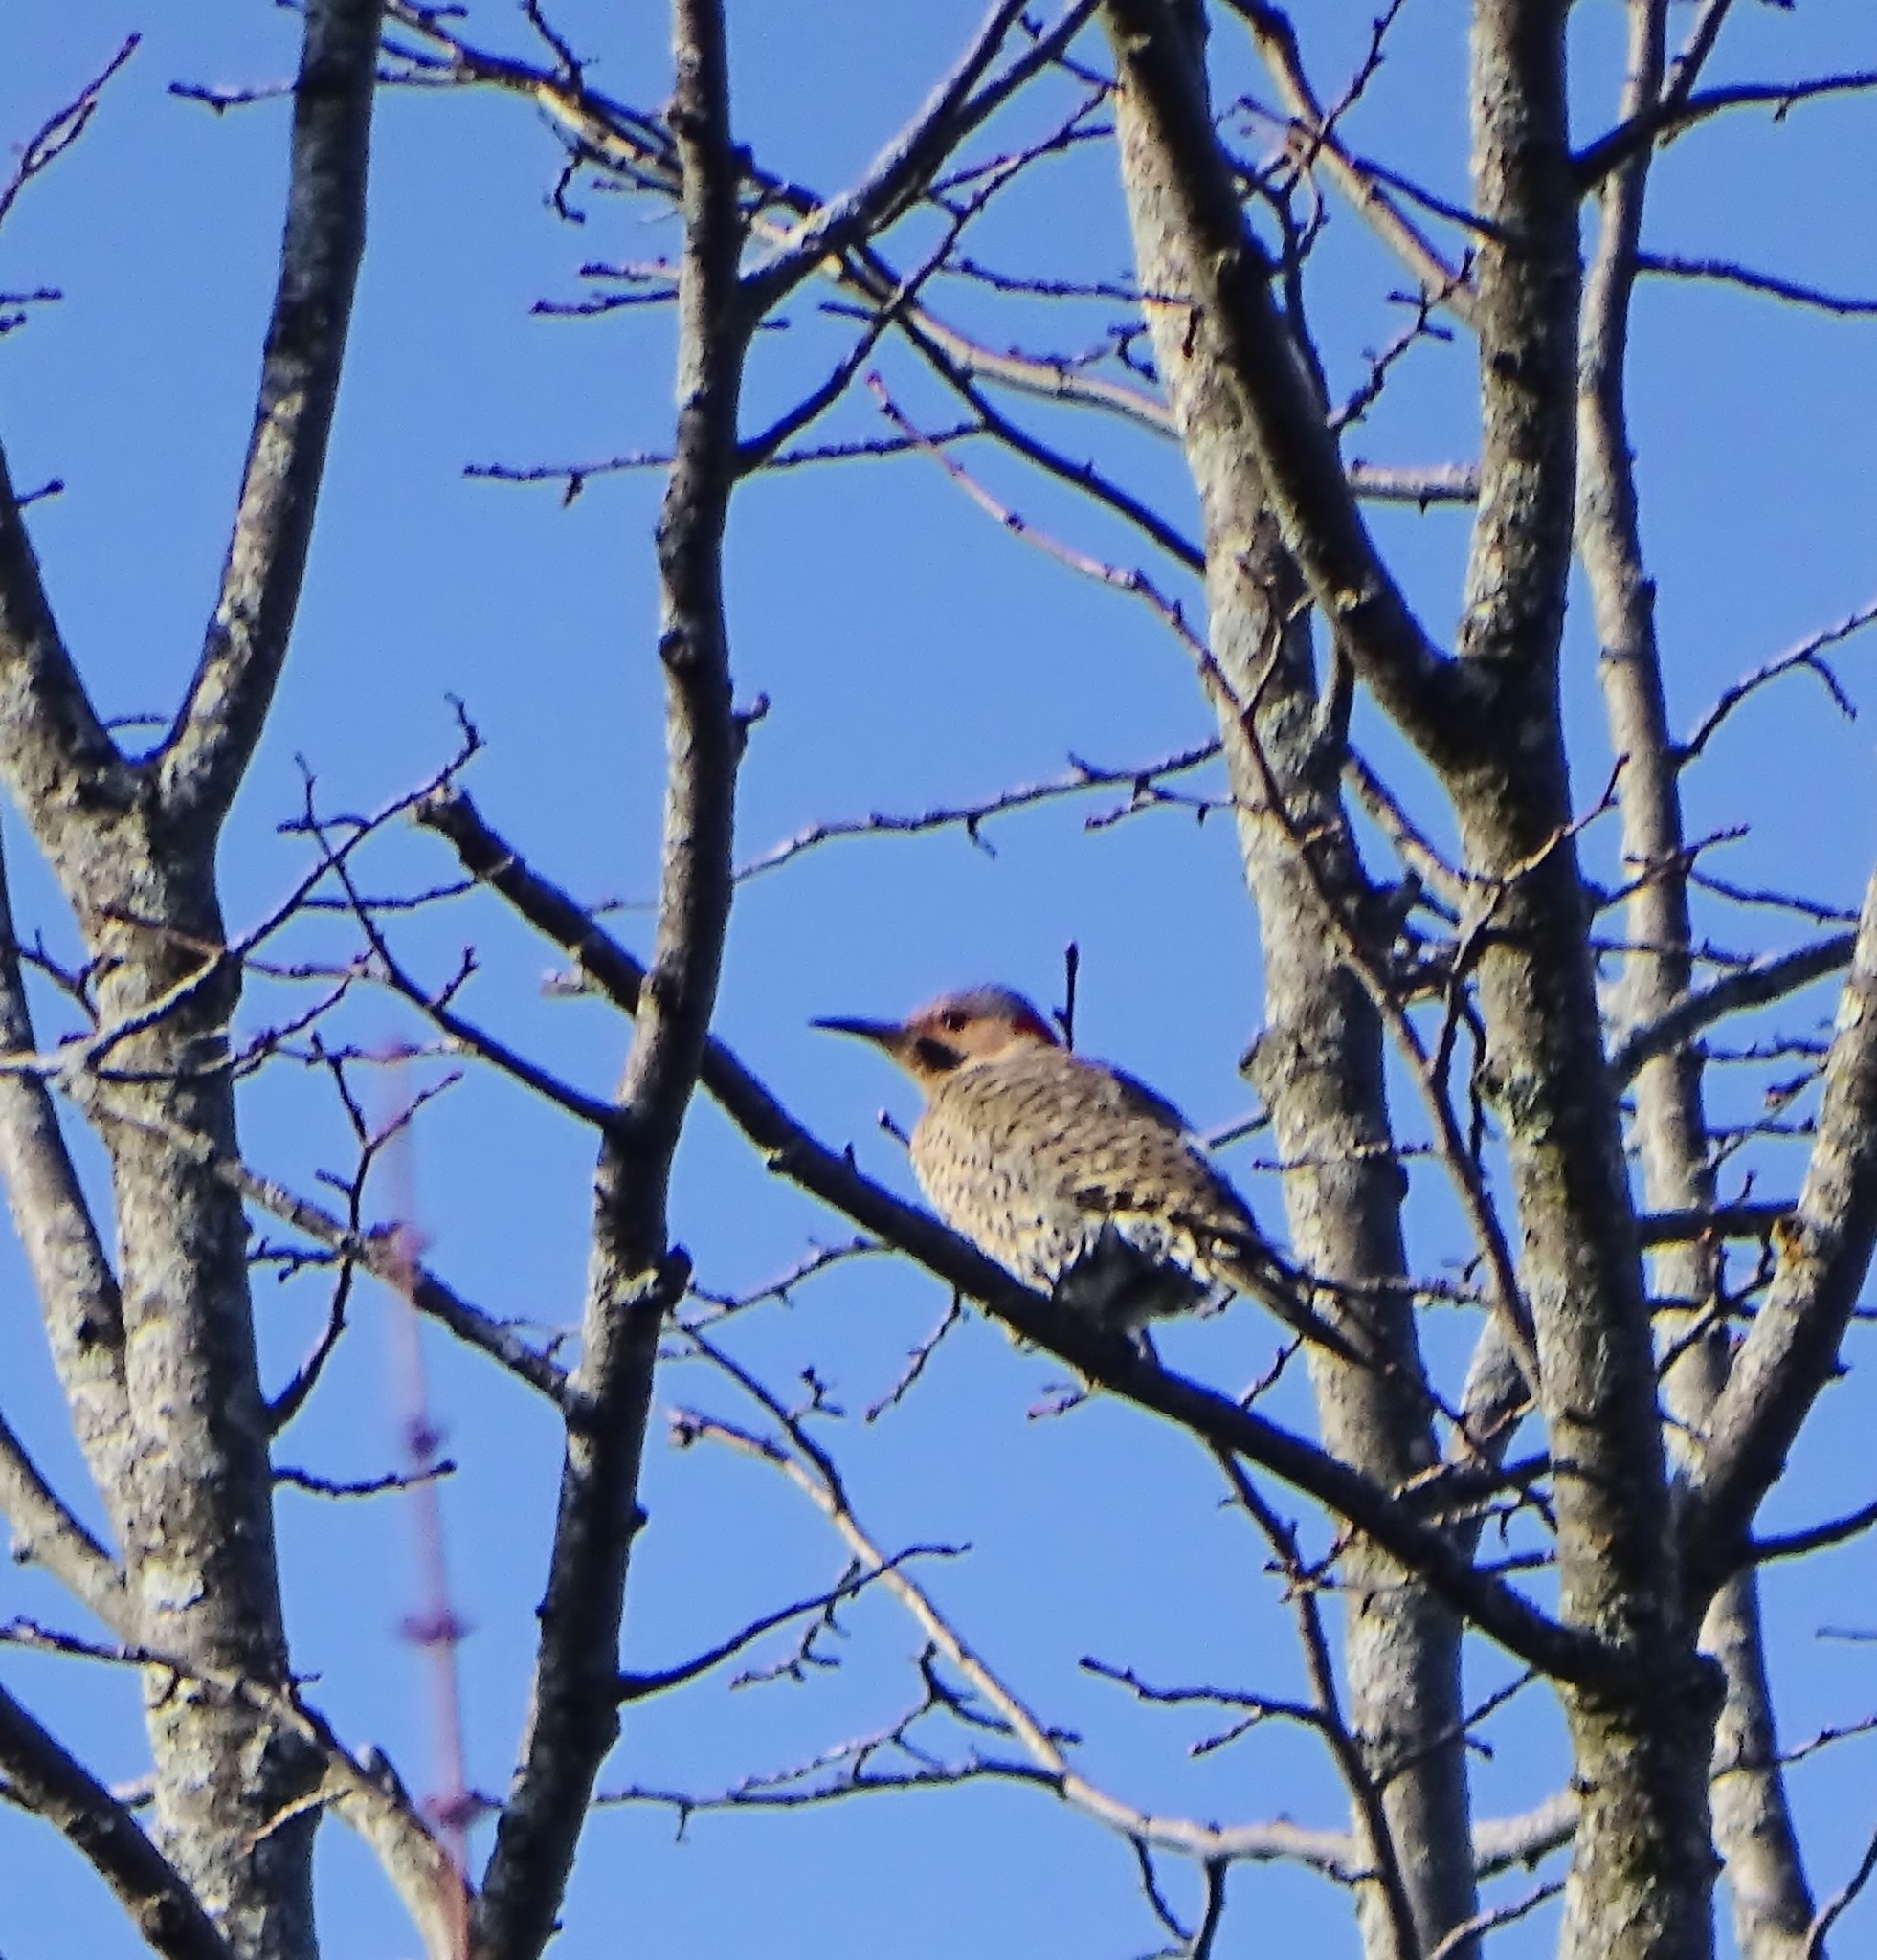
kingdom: Animalia
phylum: Chordata
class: Aves
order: Piciformes
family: Picidae
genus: Colaptes
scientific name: Colaptes auratus
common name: Northern flicker
